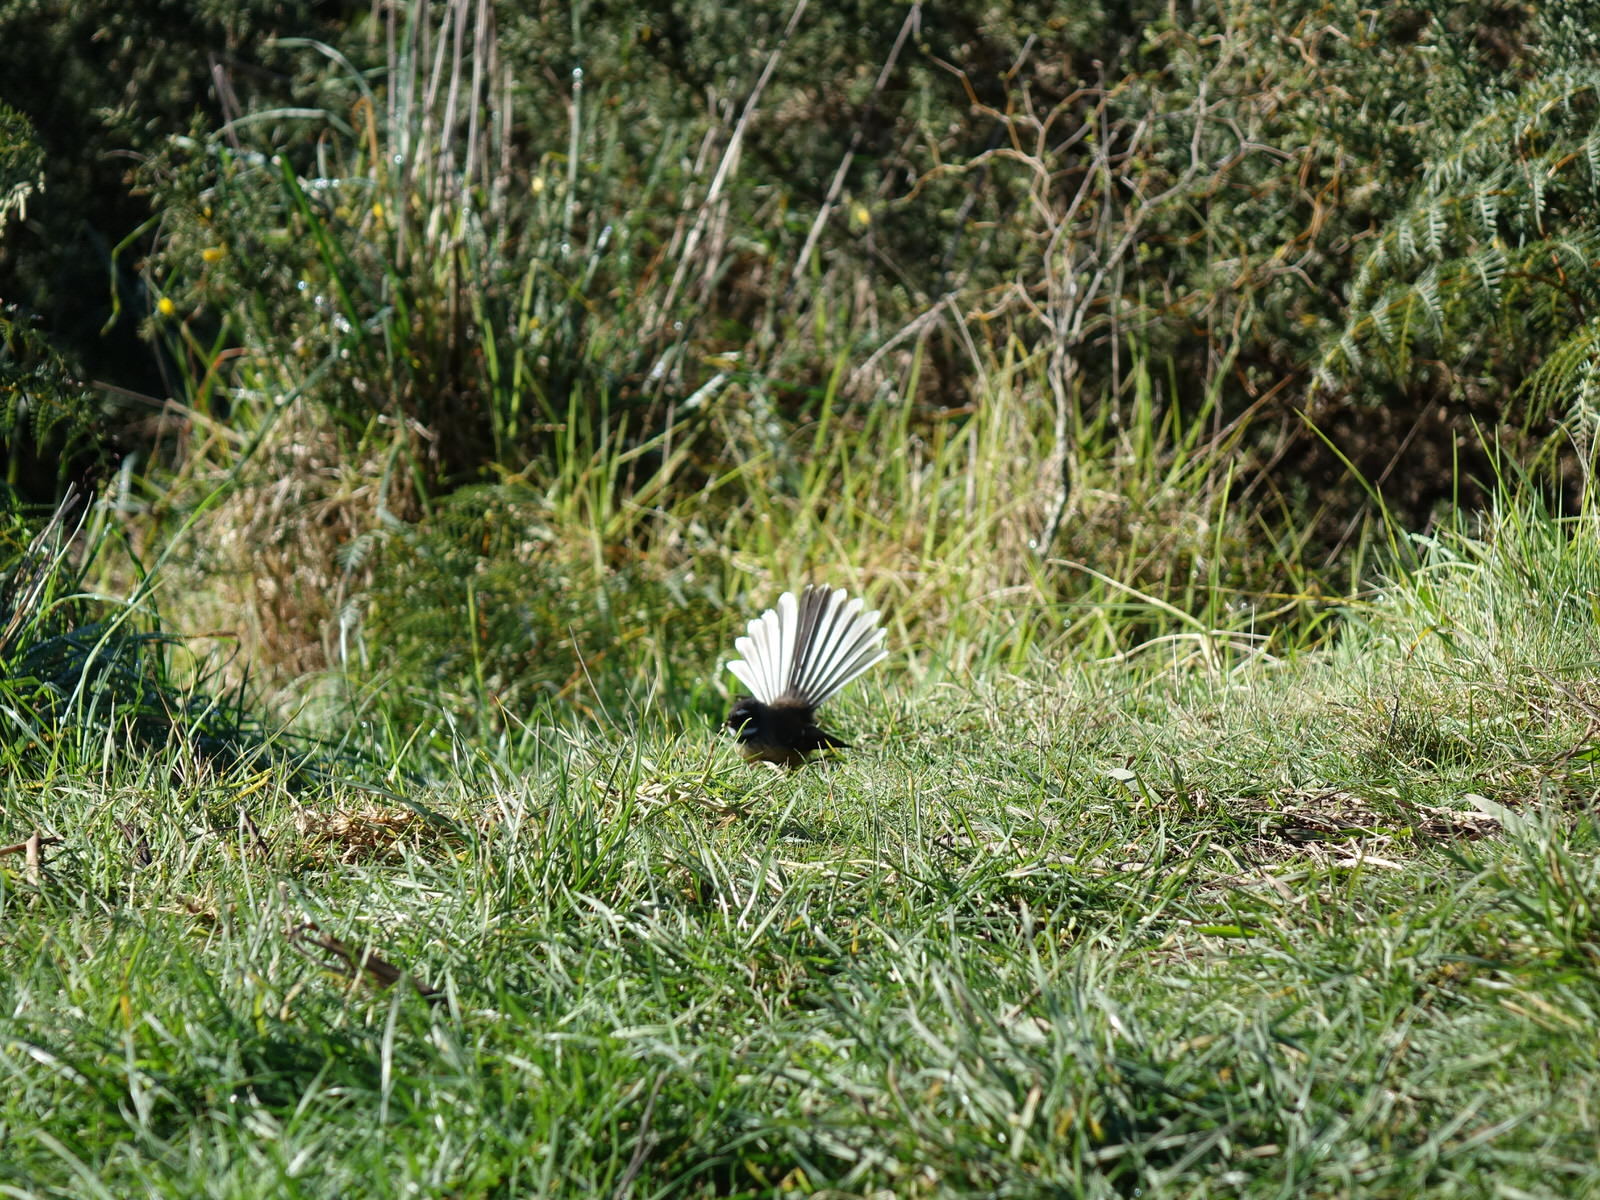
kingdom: Animalia
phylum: Chordata
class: Aves
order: Passeriformes
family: Rhipiduridae
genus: Rhipidura
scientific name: Rhipidura fuliginosa
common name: New zealand fantail
